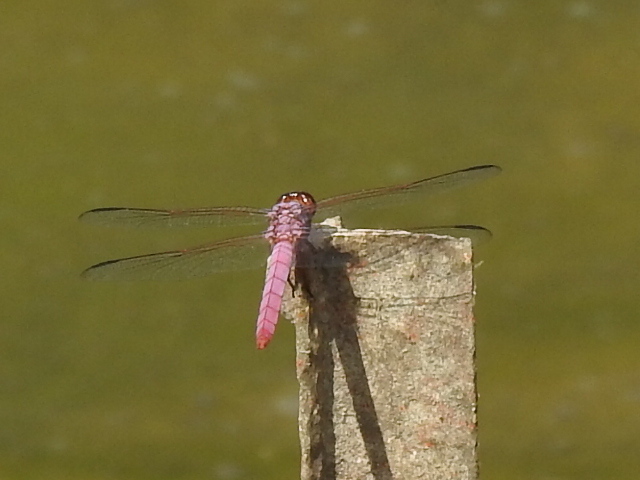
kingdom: Animalia
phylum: Arthropoda
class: Insecta
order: Odonata
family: Libellulidae
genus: Orthemis
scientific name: Orthemis ferruginea
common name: Roseate skimmer
